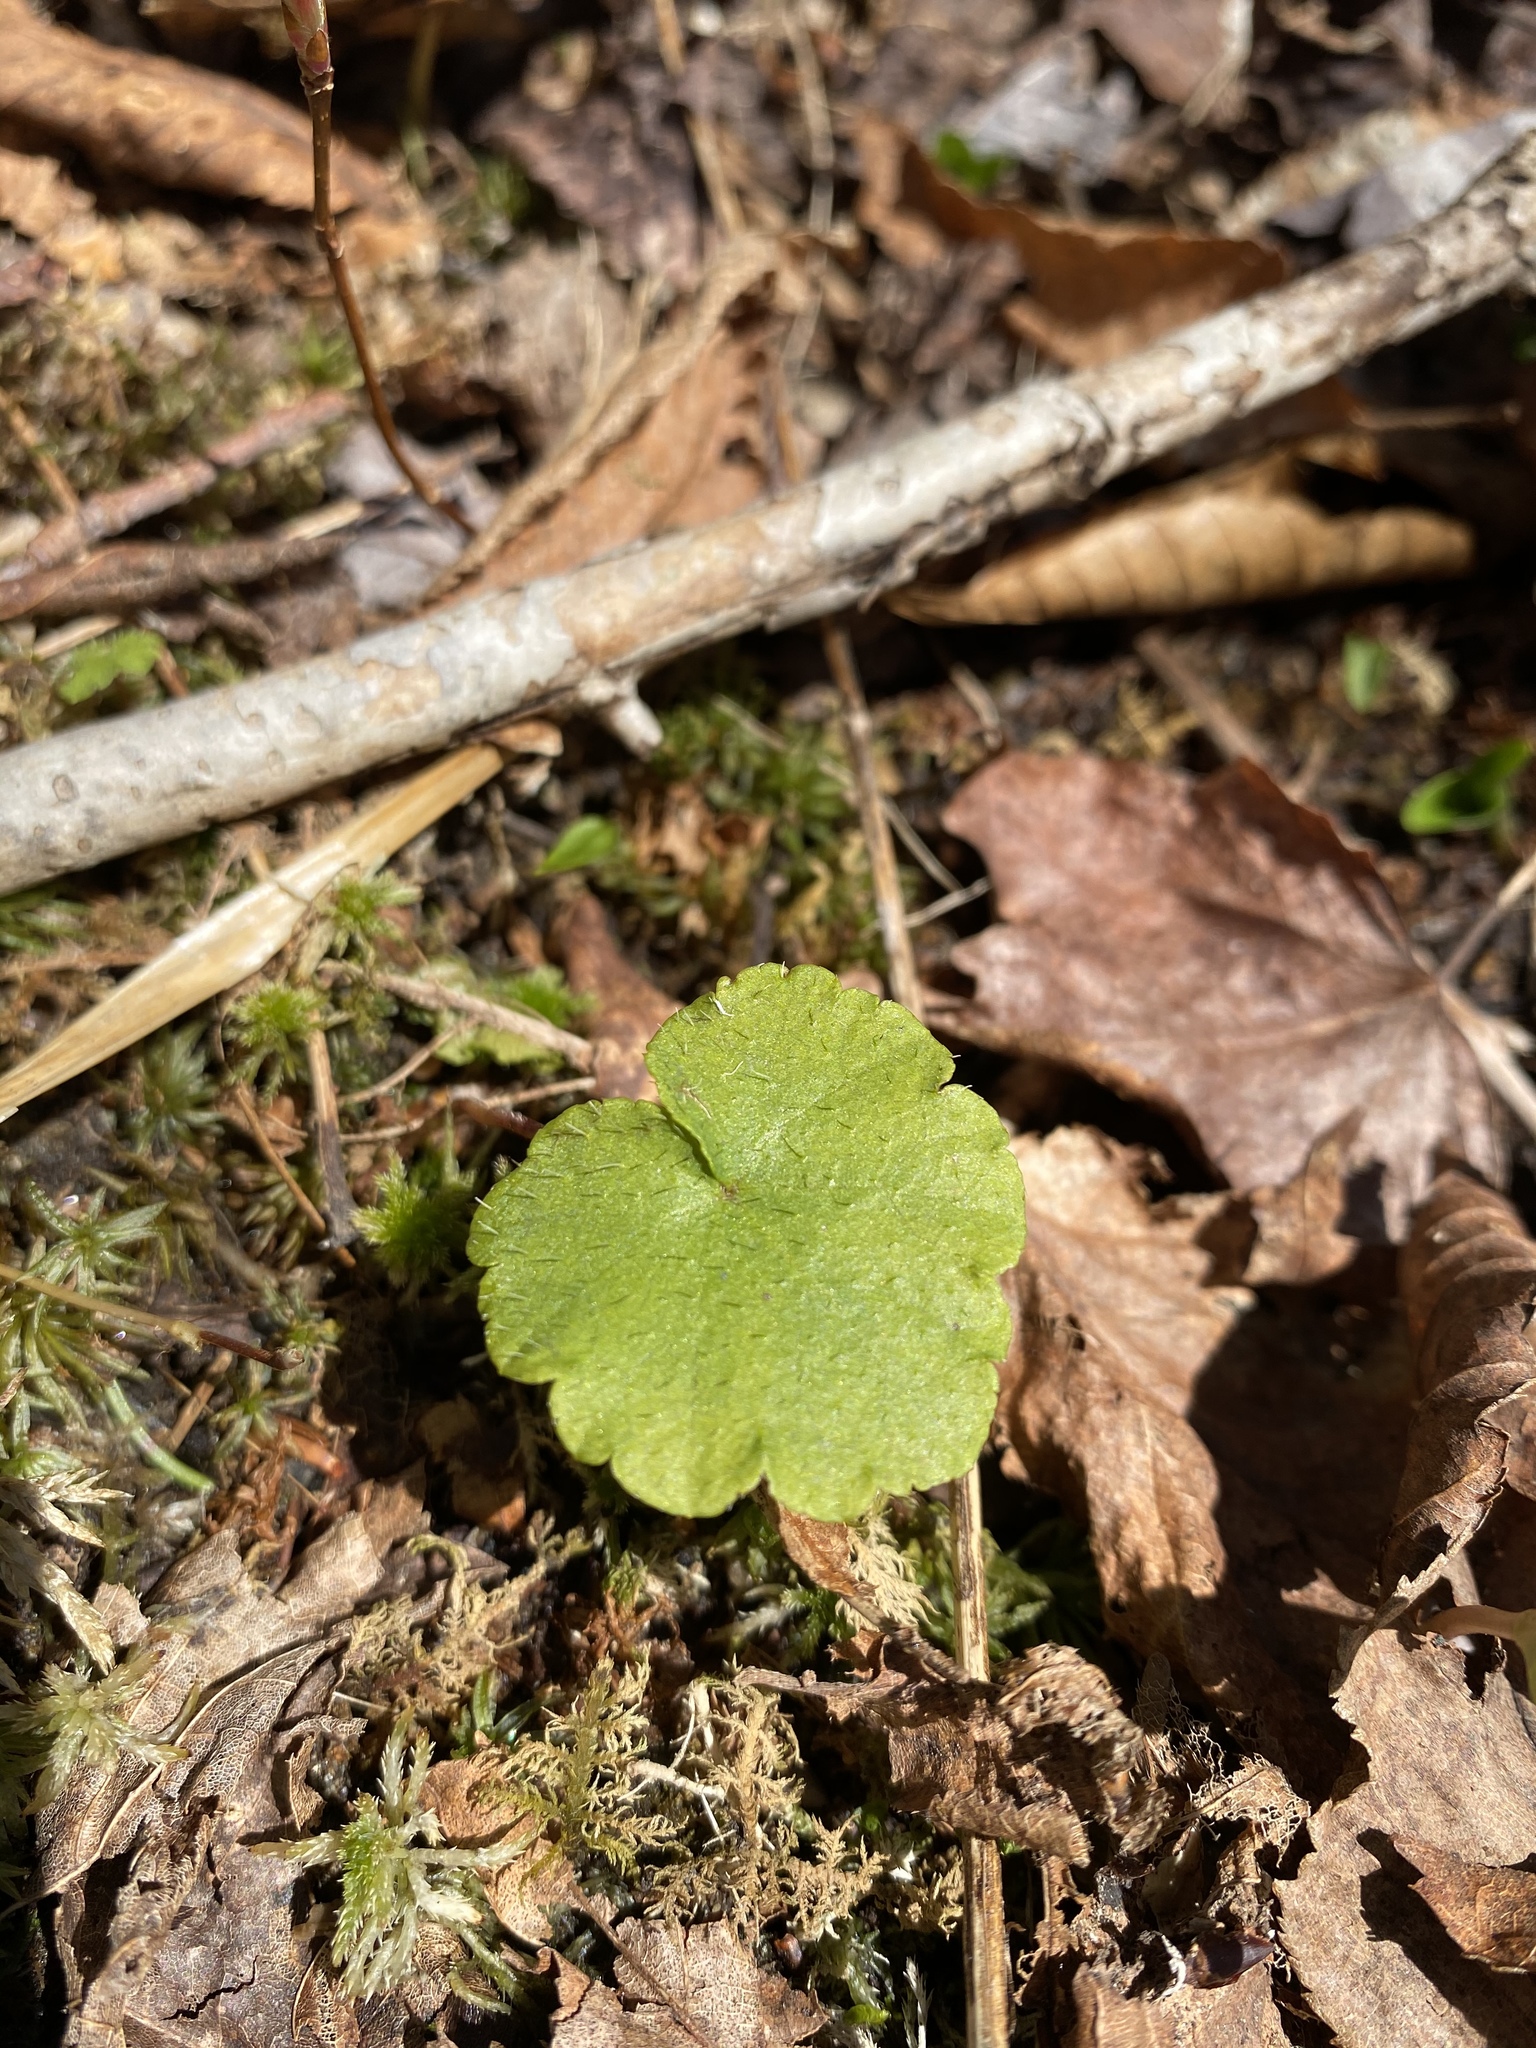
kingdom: Plantae
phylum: Tracheophyta
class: Magnoliopsida
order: Saxifragales
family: Saxifragaceae
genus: Mitella
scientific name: Mitella nuda
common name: Bare-stemmed bishop's-cap
